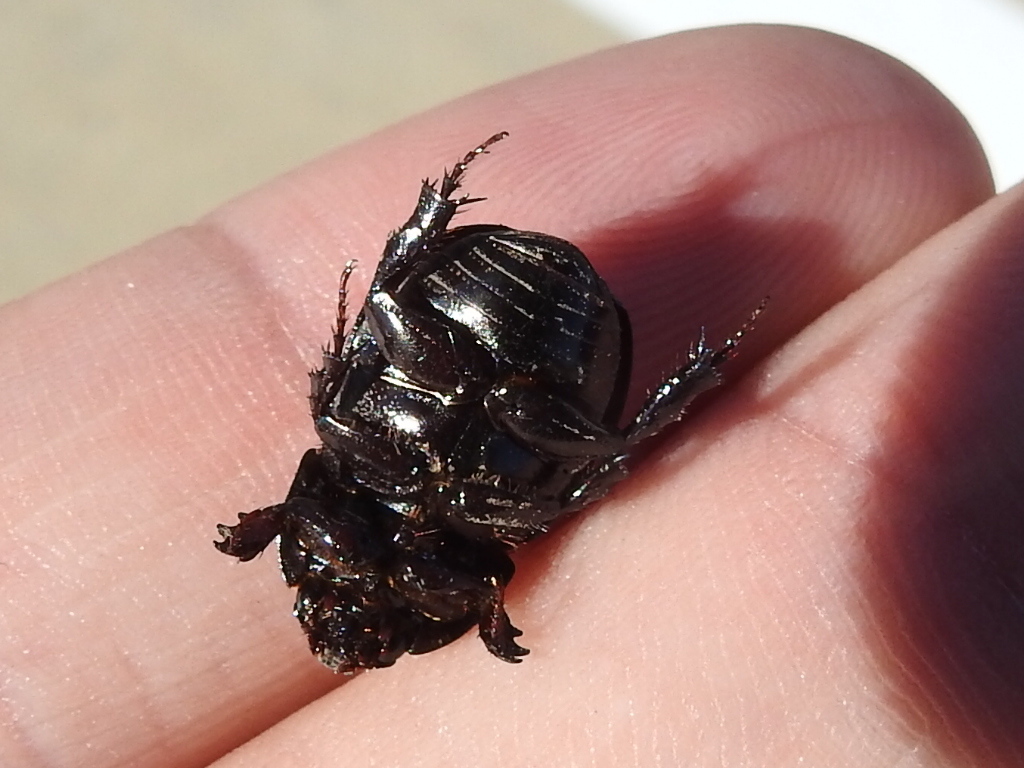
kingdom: Animalia
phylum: Arthropoda
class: Insecta
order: Coleoptera
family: Scarabaeidae
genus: Euetheola
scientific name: Euetheola humilis
